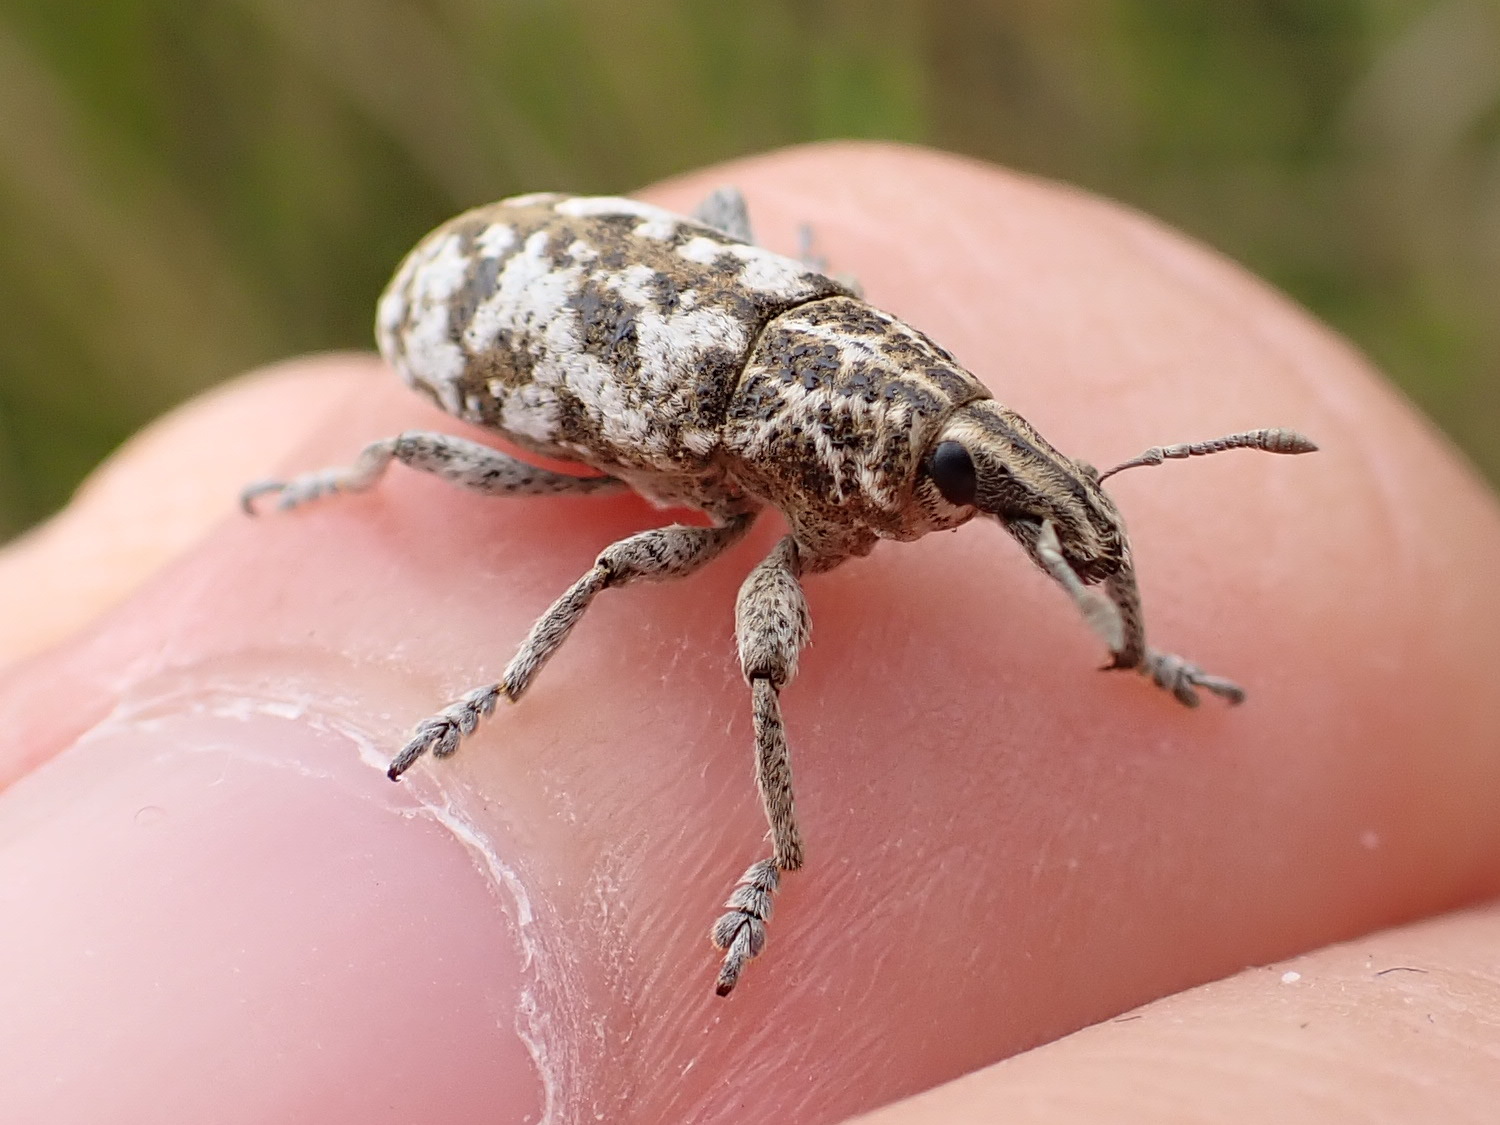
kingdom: Animalia
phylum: Arthropoda
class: Insecta
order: Coleoptera
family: Curculionidae
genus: Cyphocleonus
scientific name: Cyphocleonus dealbatus
